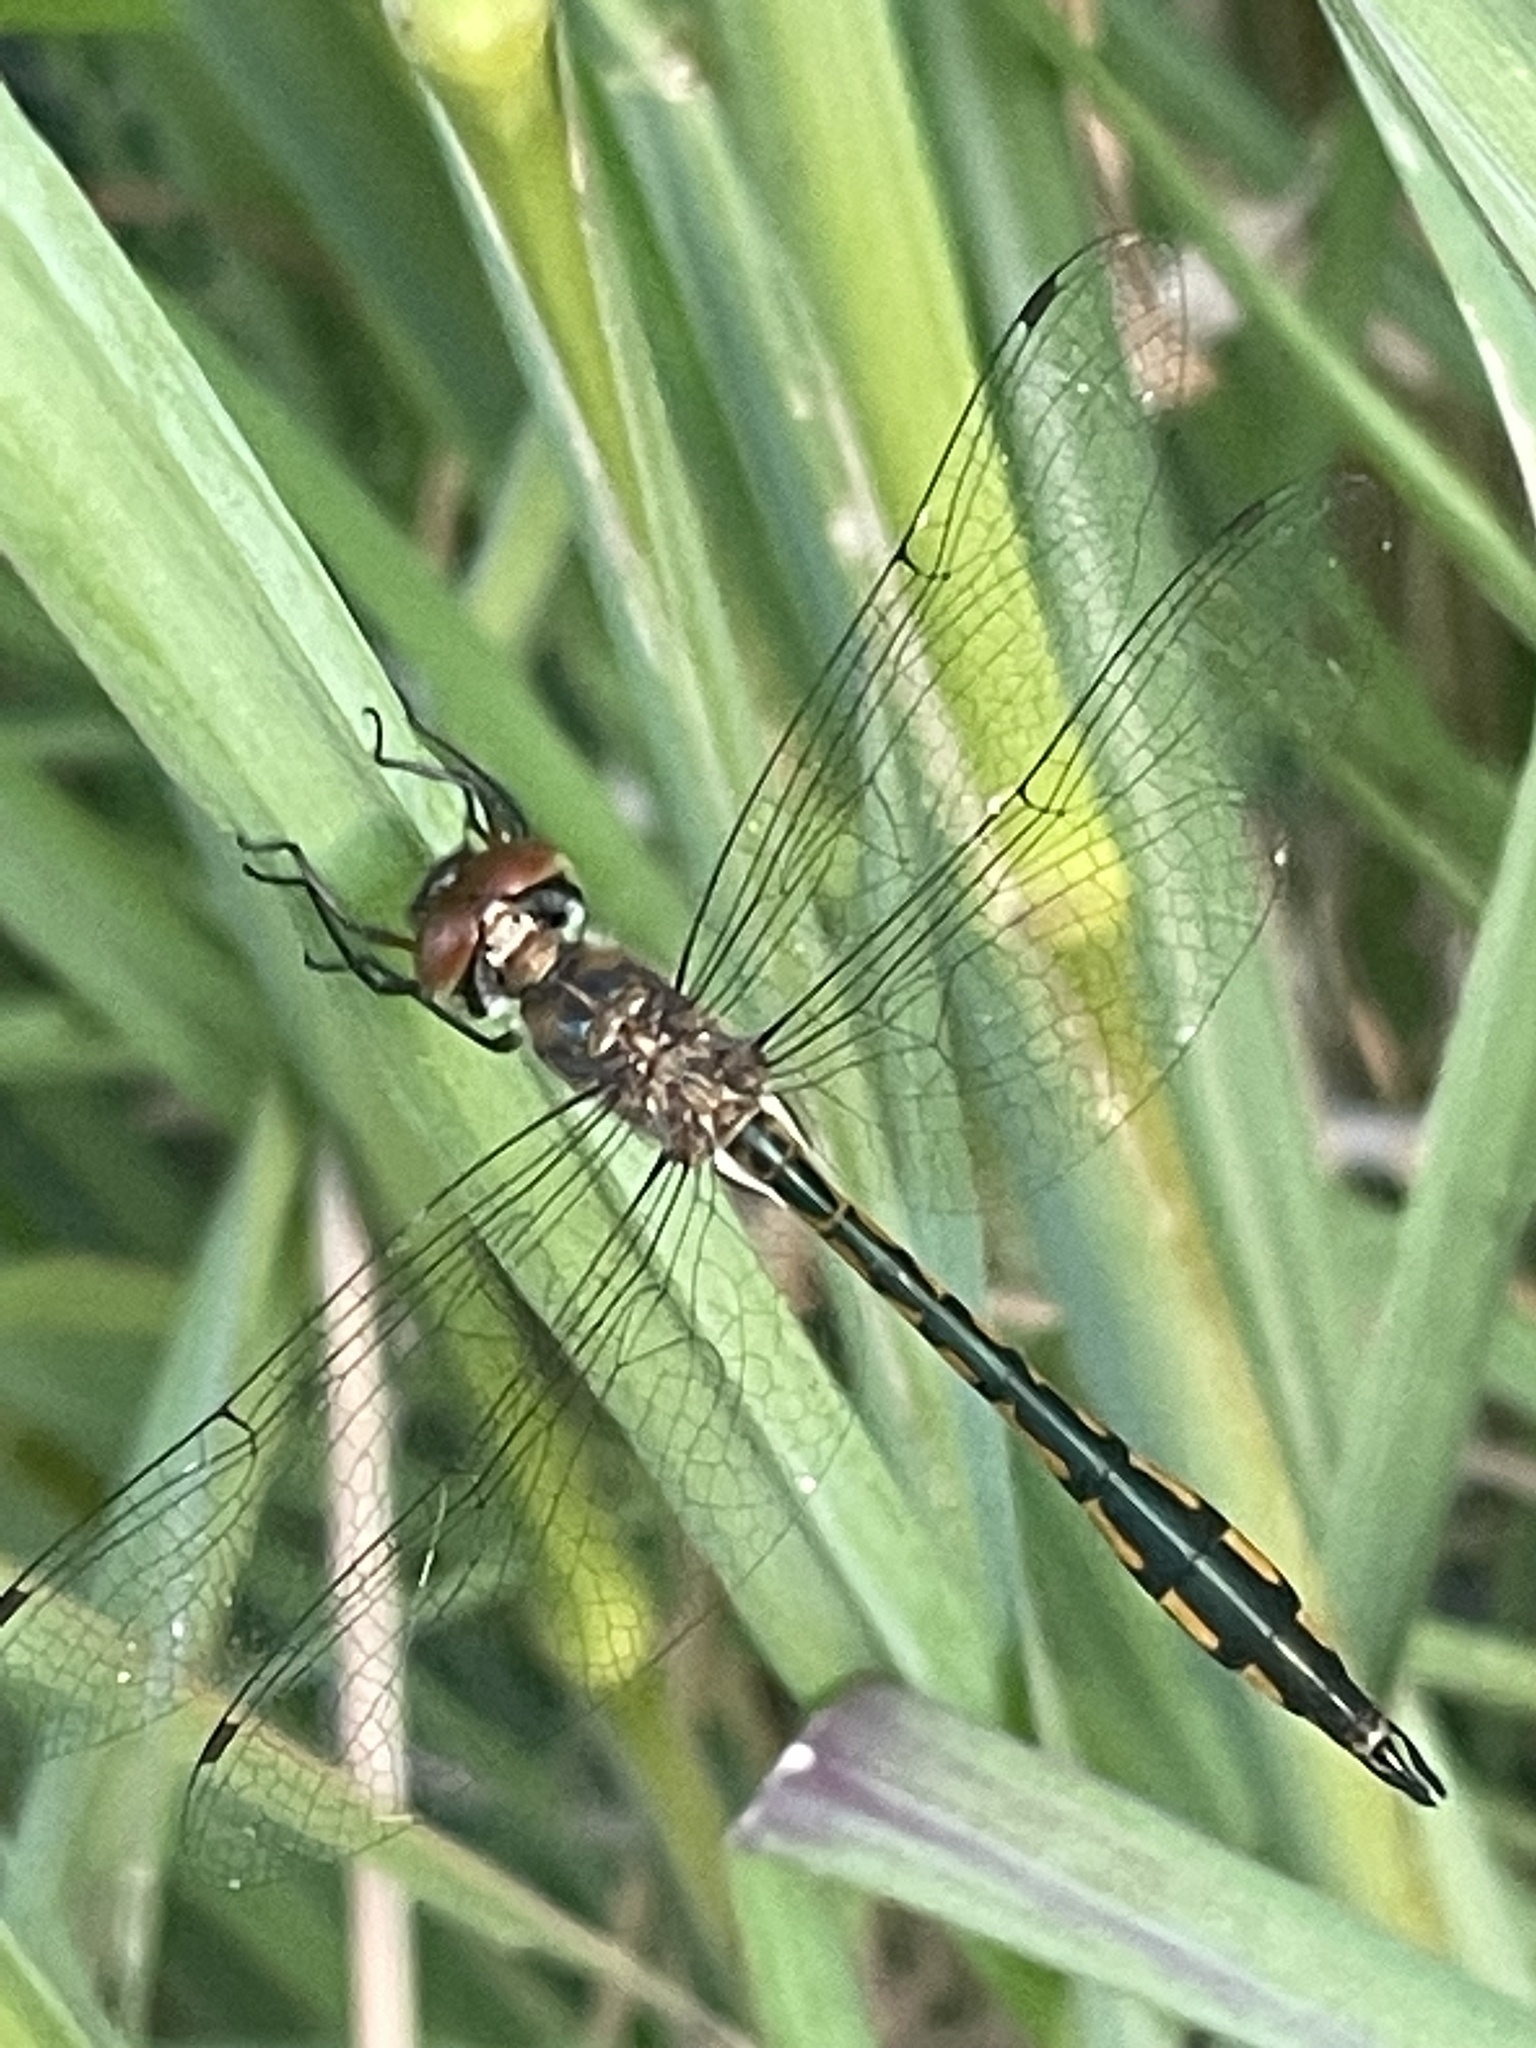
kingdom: Animalia
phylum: Arthropoda
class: Insecta
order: Odonata
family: Corduliidae
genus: Hemicordulia
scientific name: Hemicordulia continentalis
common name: Fat-bellied emerald
